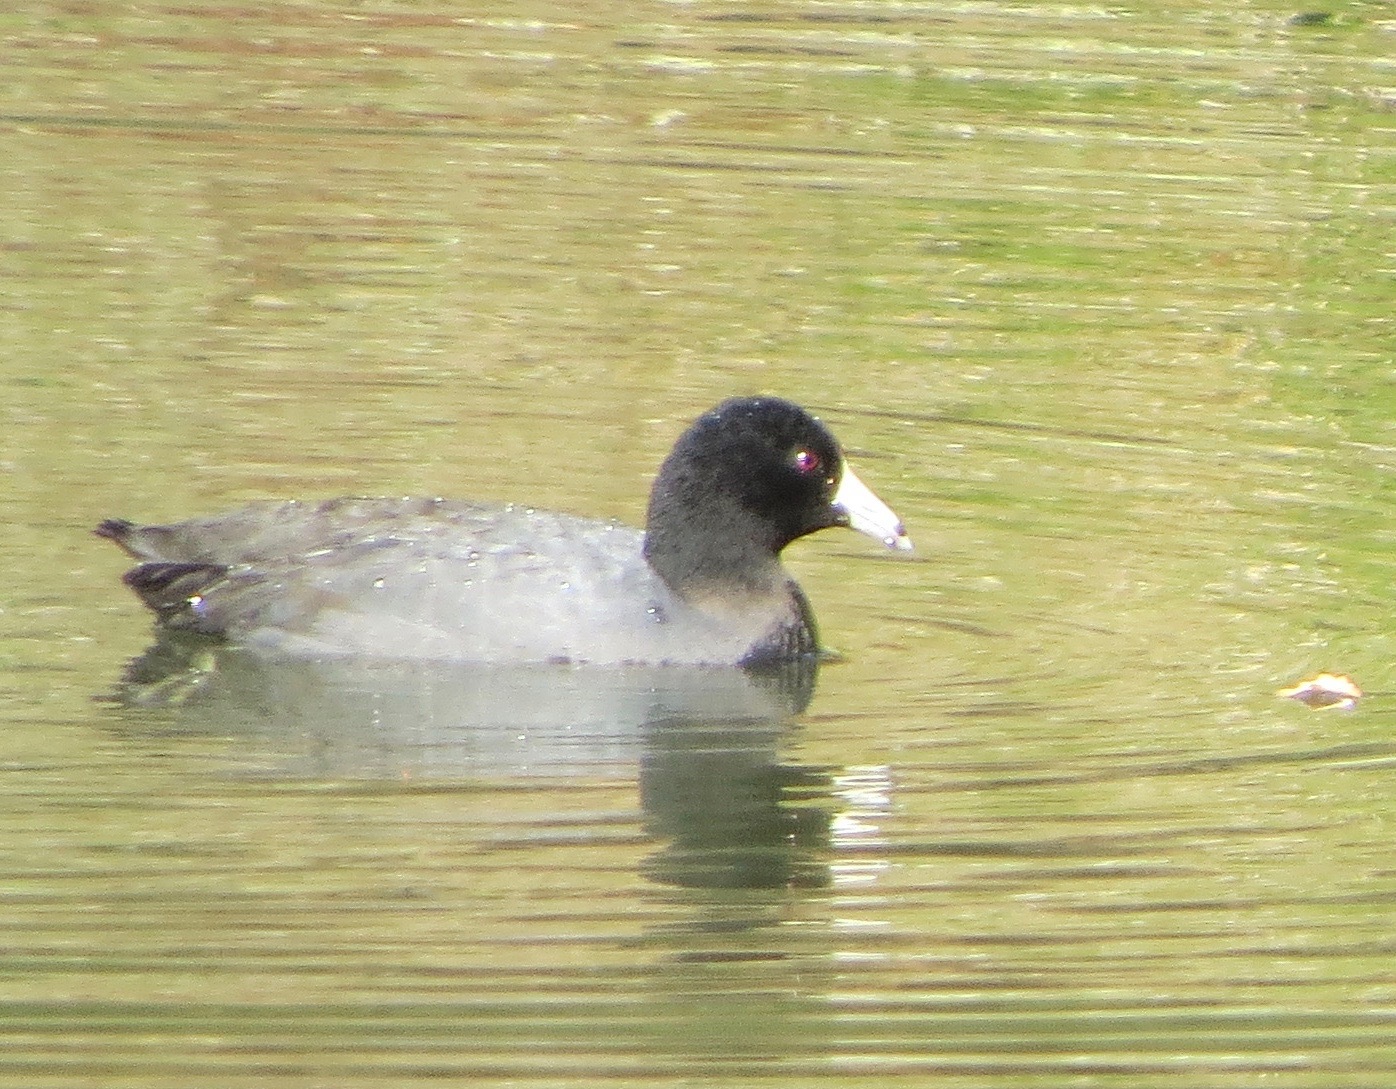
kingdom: Animalia
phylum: Chordata
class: Aves
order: Gruiformes
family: Rallidae
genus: Fulica
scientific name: Fulica americana
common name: American coot
